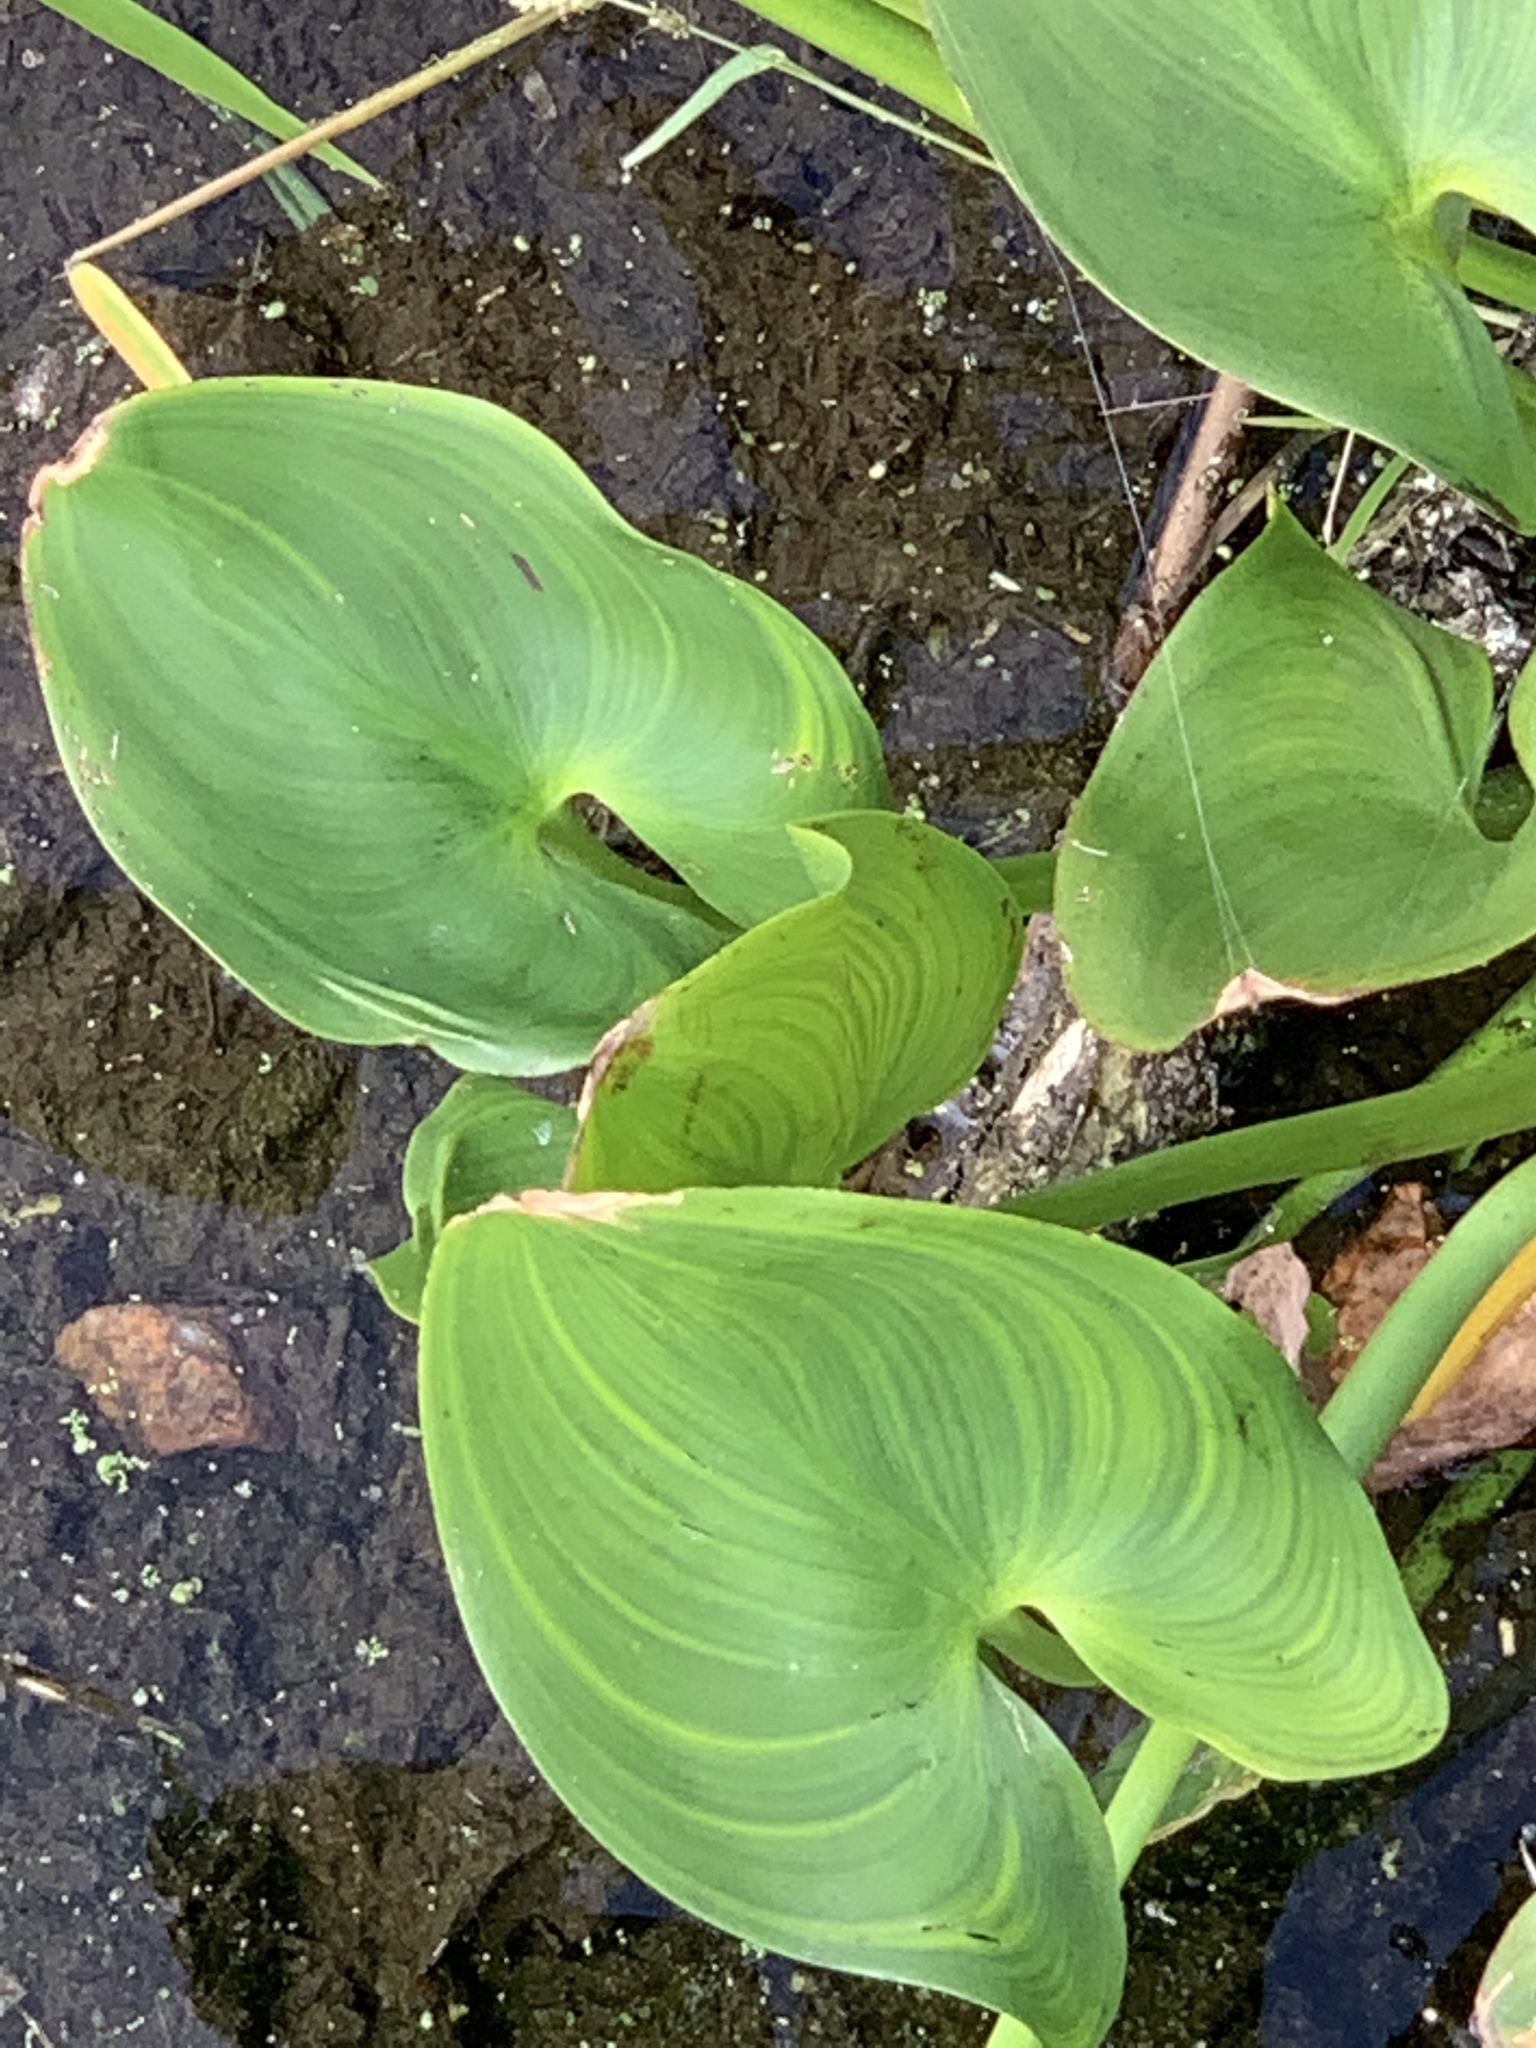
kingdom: Plantae
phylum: Tracheophyta
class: Liliopsida
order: Commelinales
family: Pontederiaceae
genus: Pontederia
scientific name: Pontederia cordata
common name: Pickerelweed
